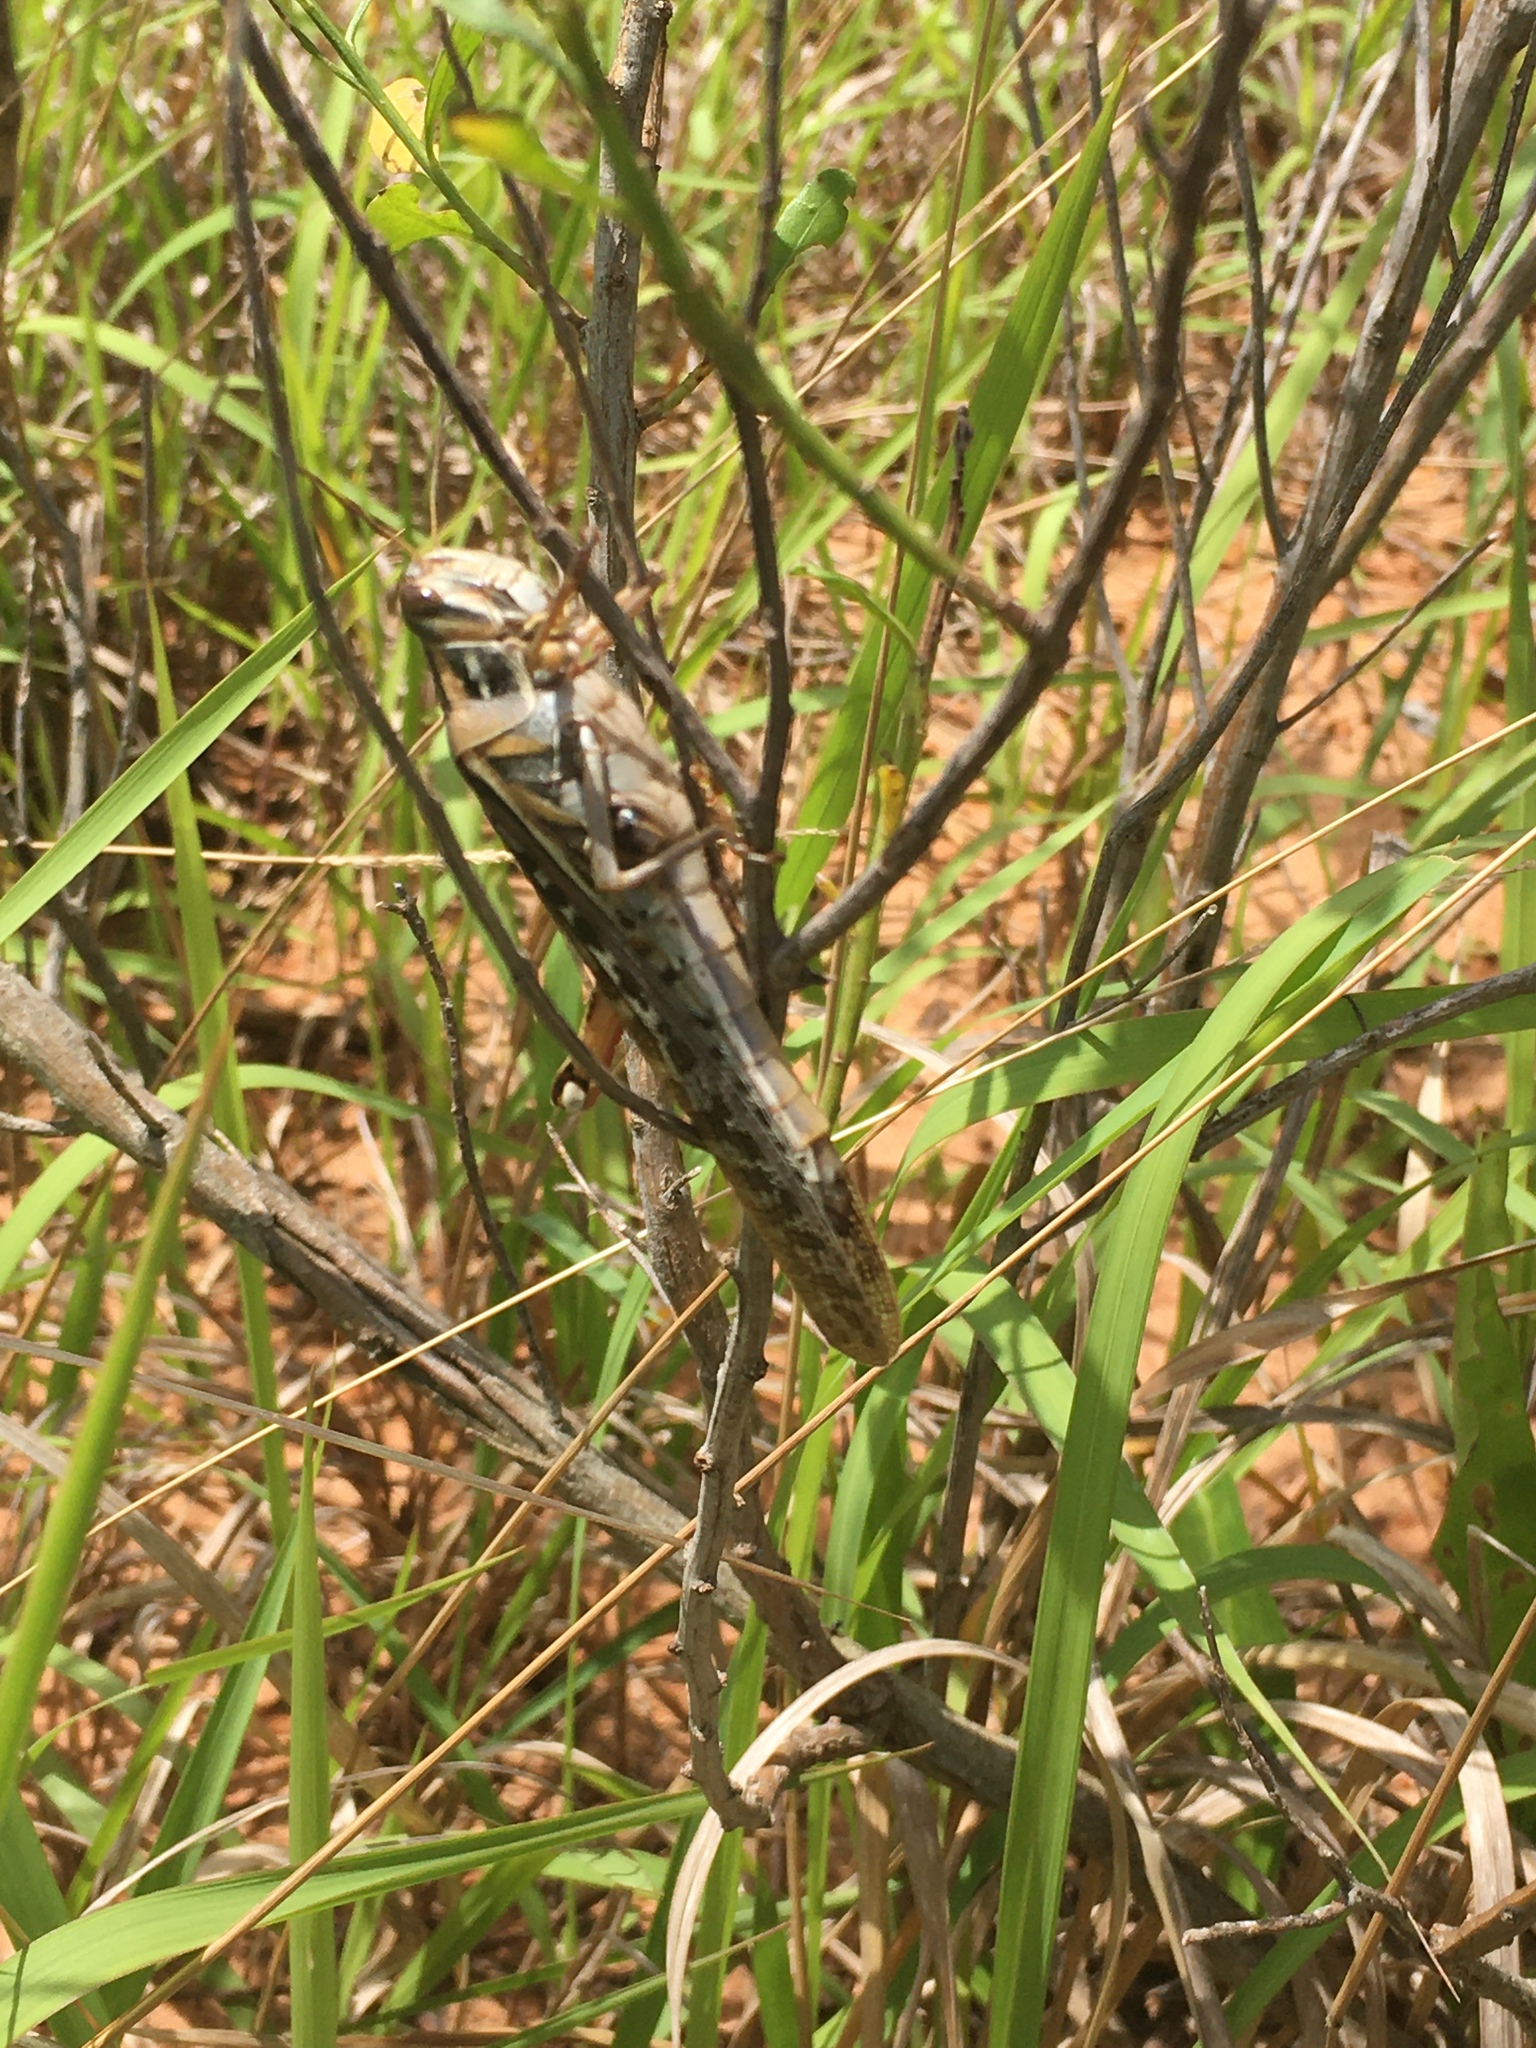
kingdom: Animalia
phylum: Arthropoda
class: Insecta
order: Orthoptera
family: Acrididae
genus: Schistocerca
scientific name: Schistocerca americana
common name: American bird locust
